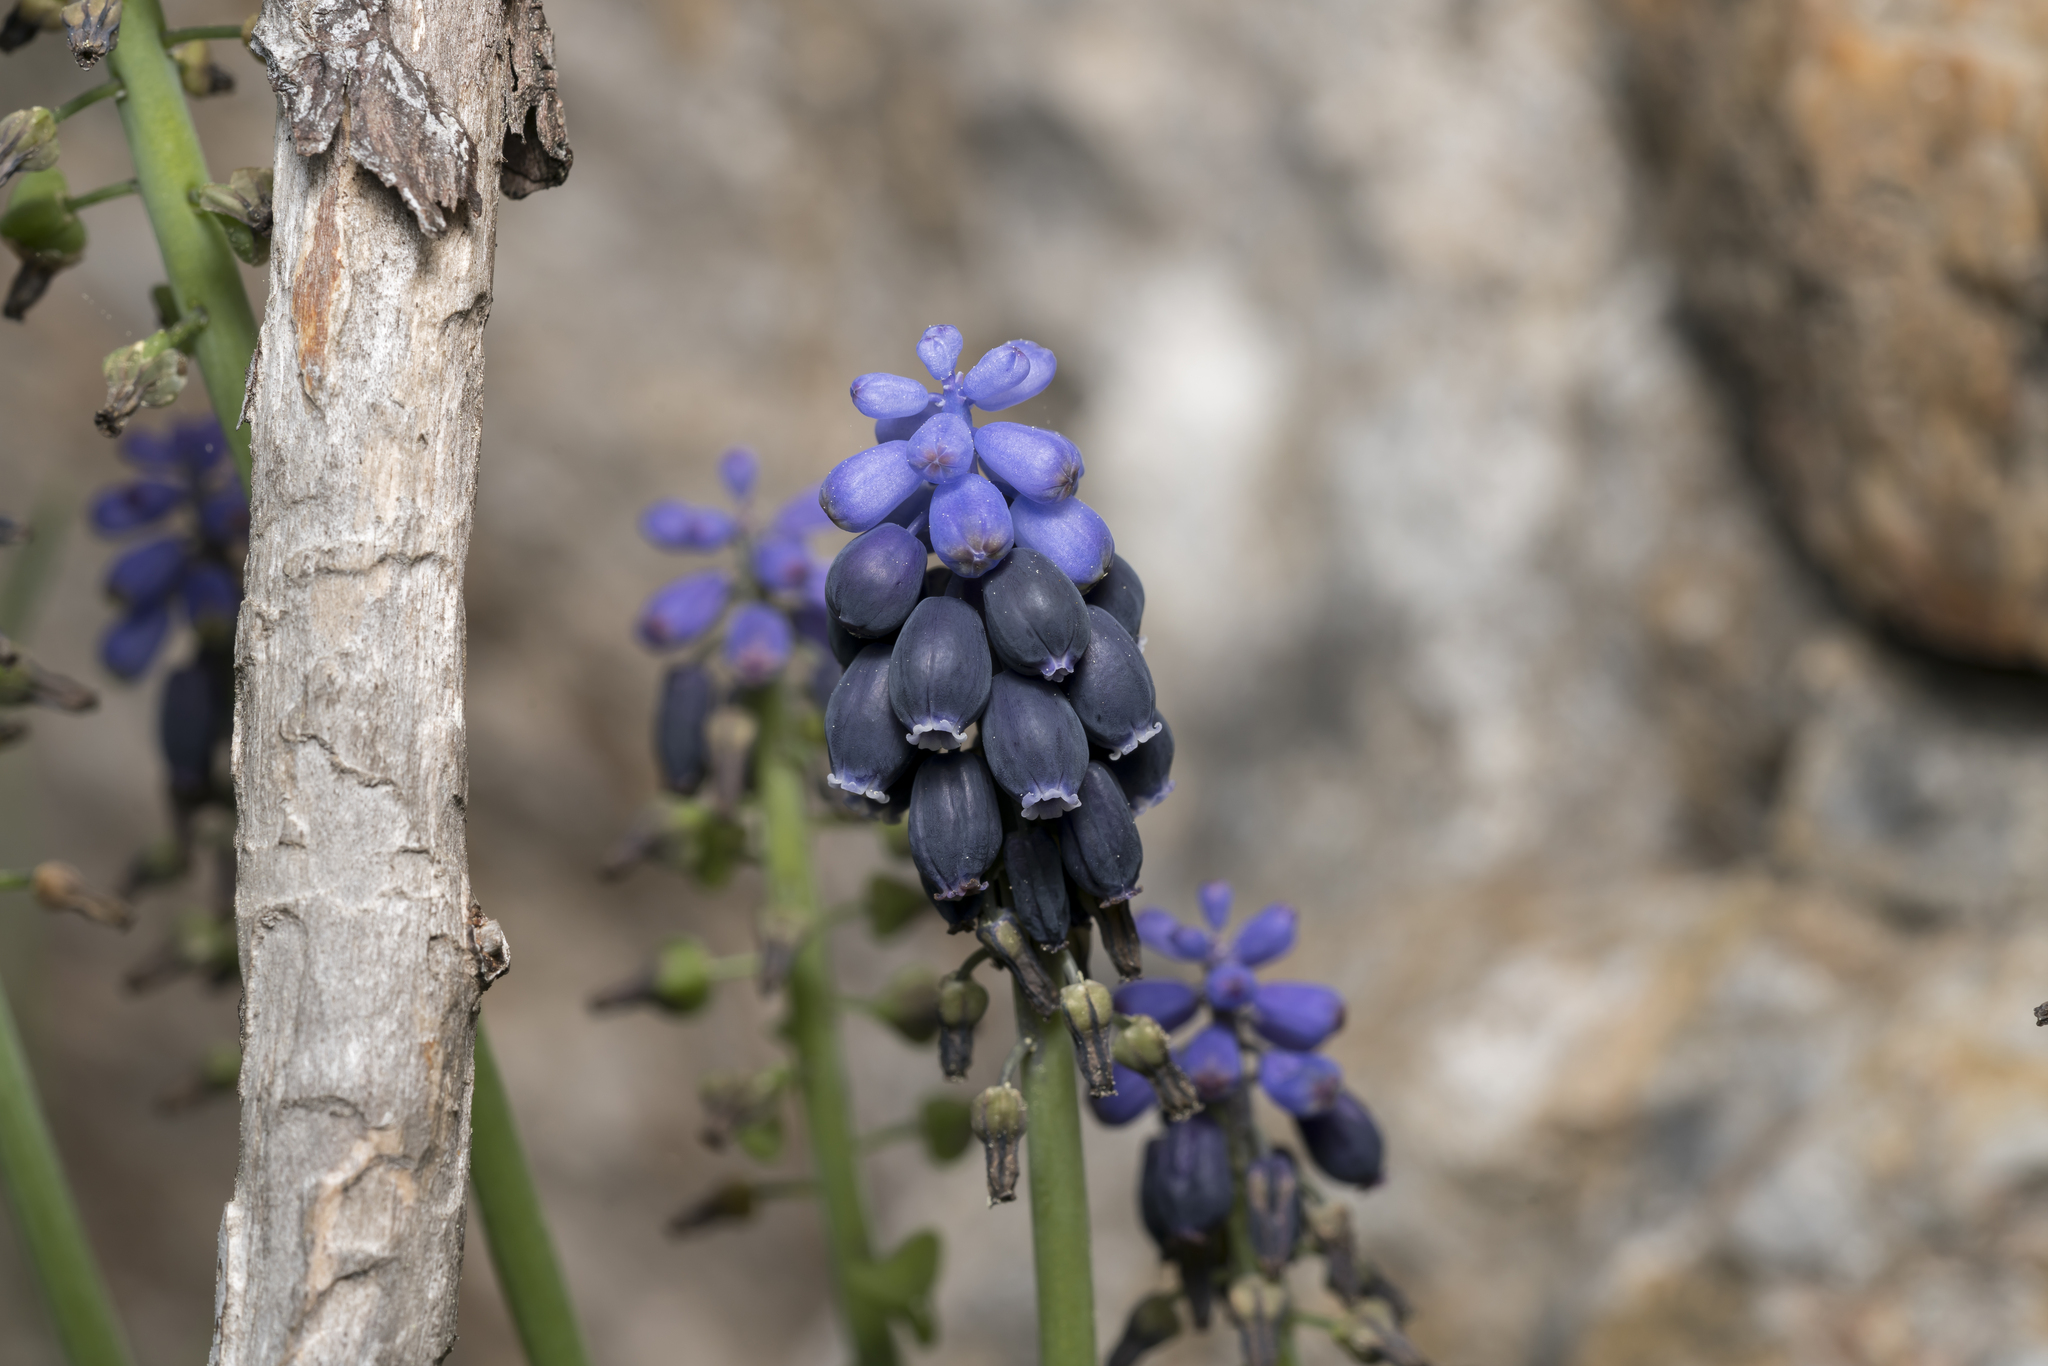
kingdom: Plantae
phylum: Tracheophyta
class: Liliopsida
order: Asparagales
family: Asparagaceae
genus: Muscari
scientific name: Muscari neglectum
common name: Grape-hyacinth
